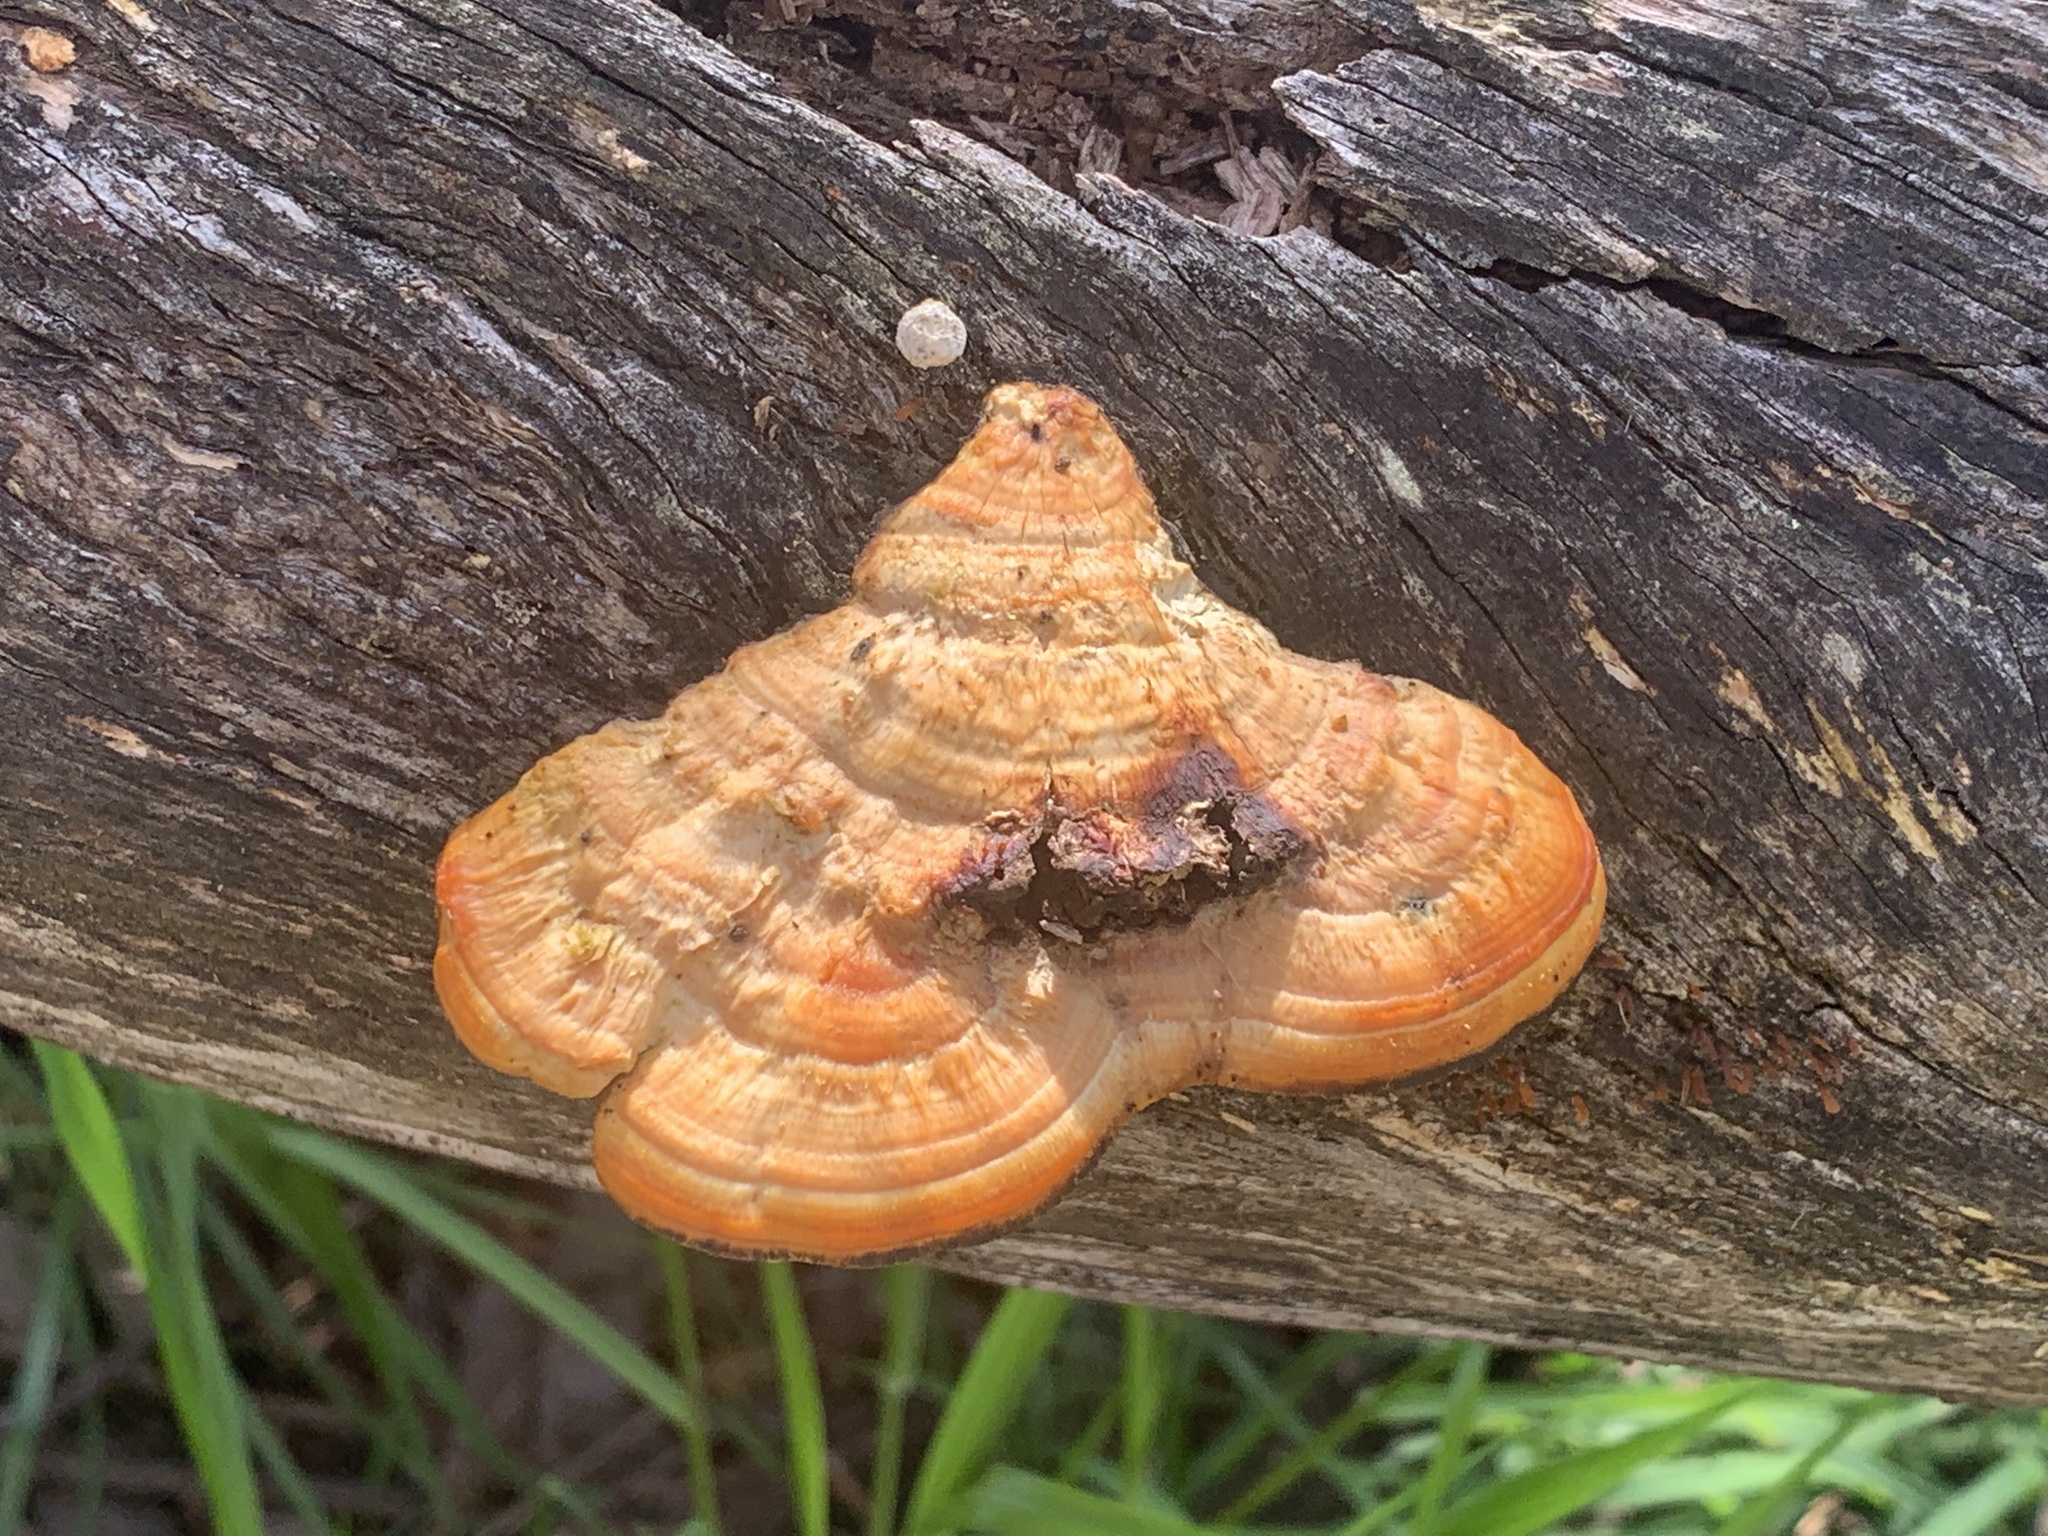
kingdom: Fungi
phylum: Basidiomycota
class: Agaricomycetes
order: Polyporales
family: Polyporaceae
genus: Trametes
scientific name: Trametes coccinea
